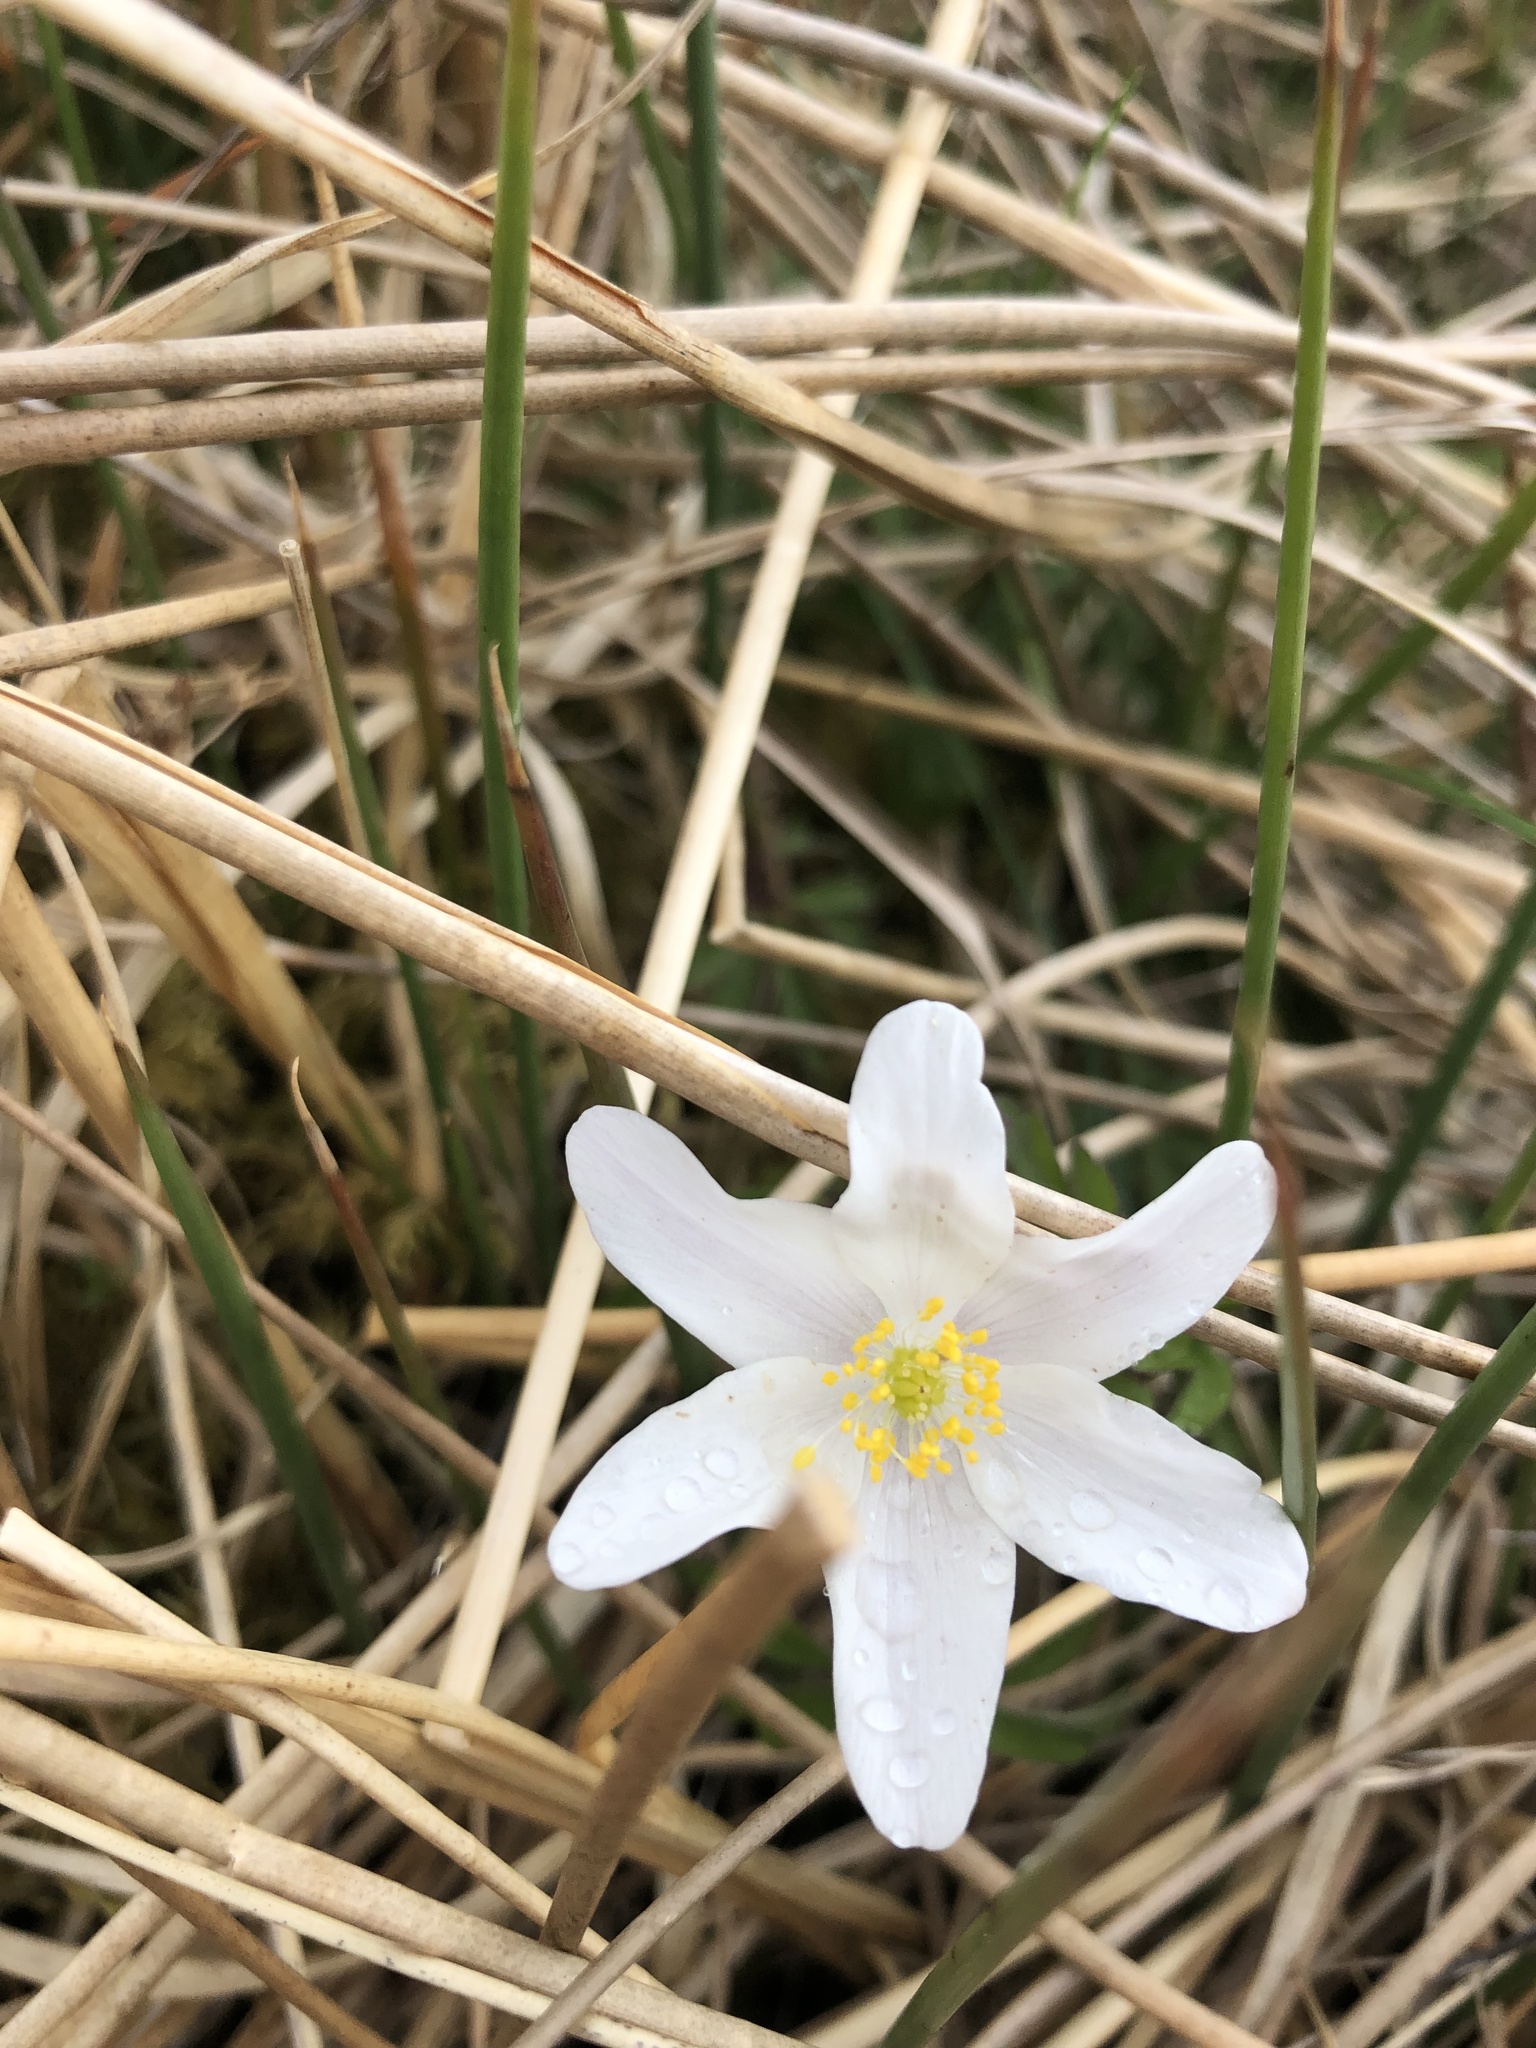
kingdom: Plantae
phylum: Tracheophyta
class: Magnoliopsida
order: Ranunculales
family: Ranunculaceae
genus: Anemone
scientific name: Anemone nemorosa
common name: Wood anemone
